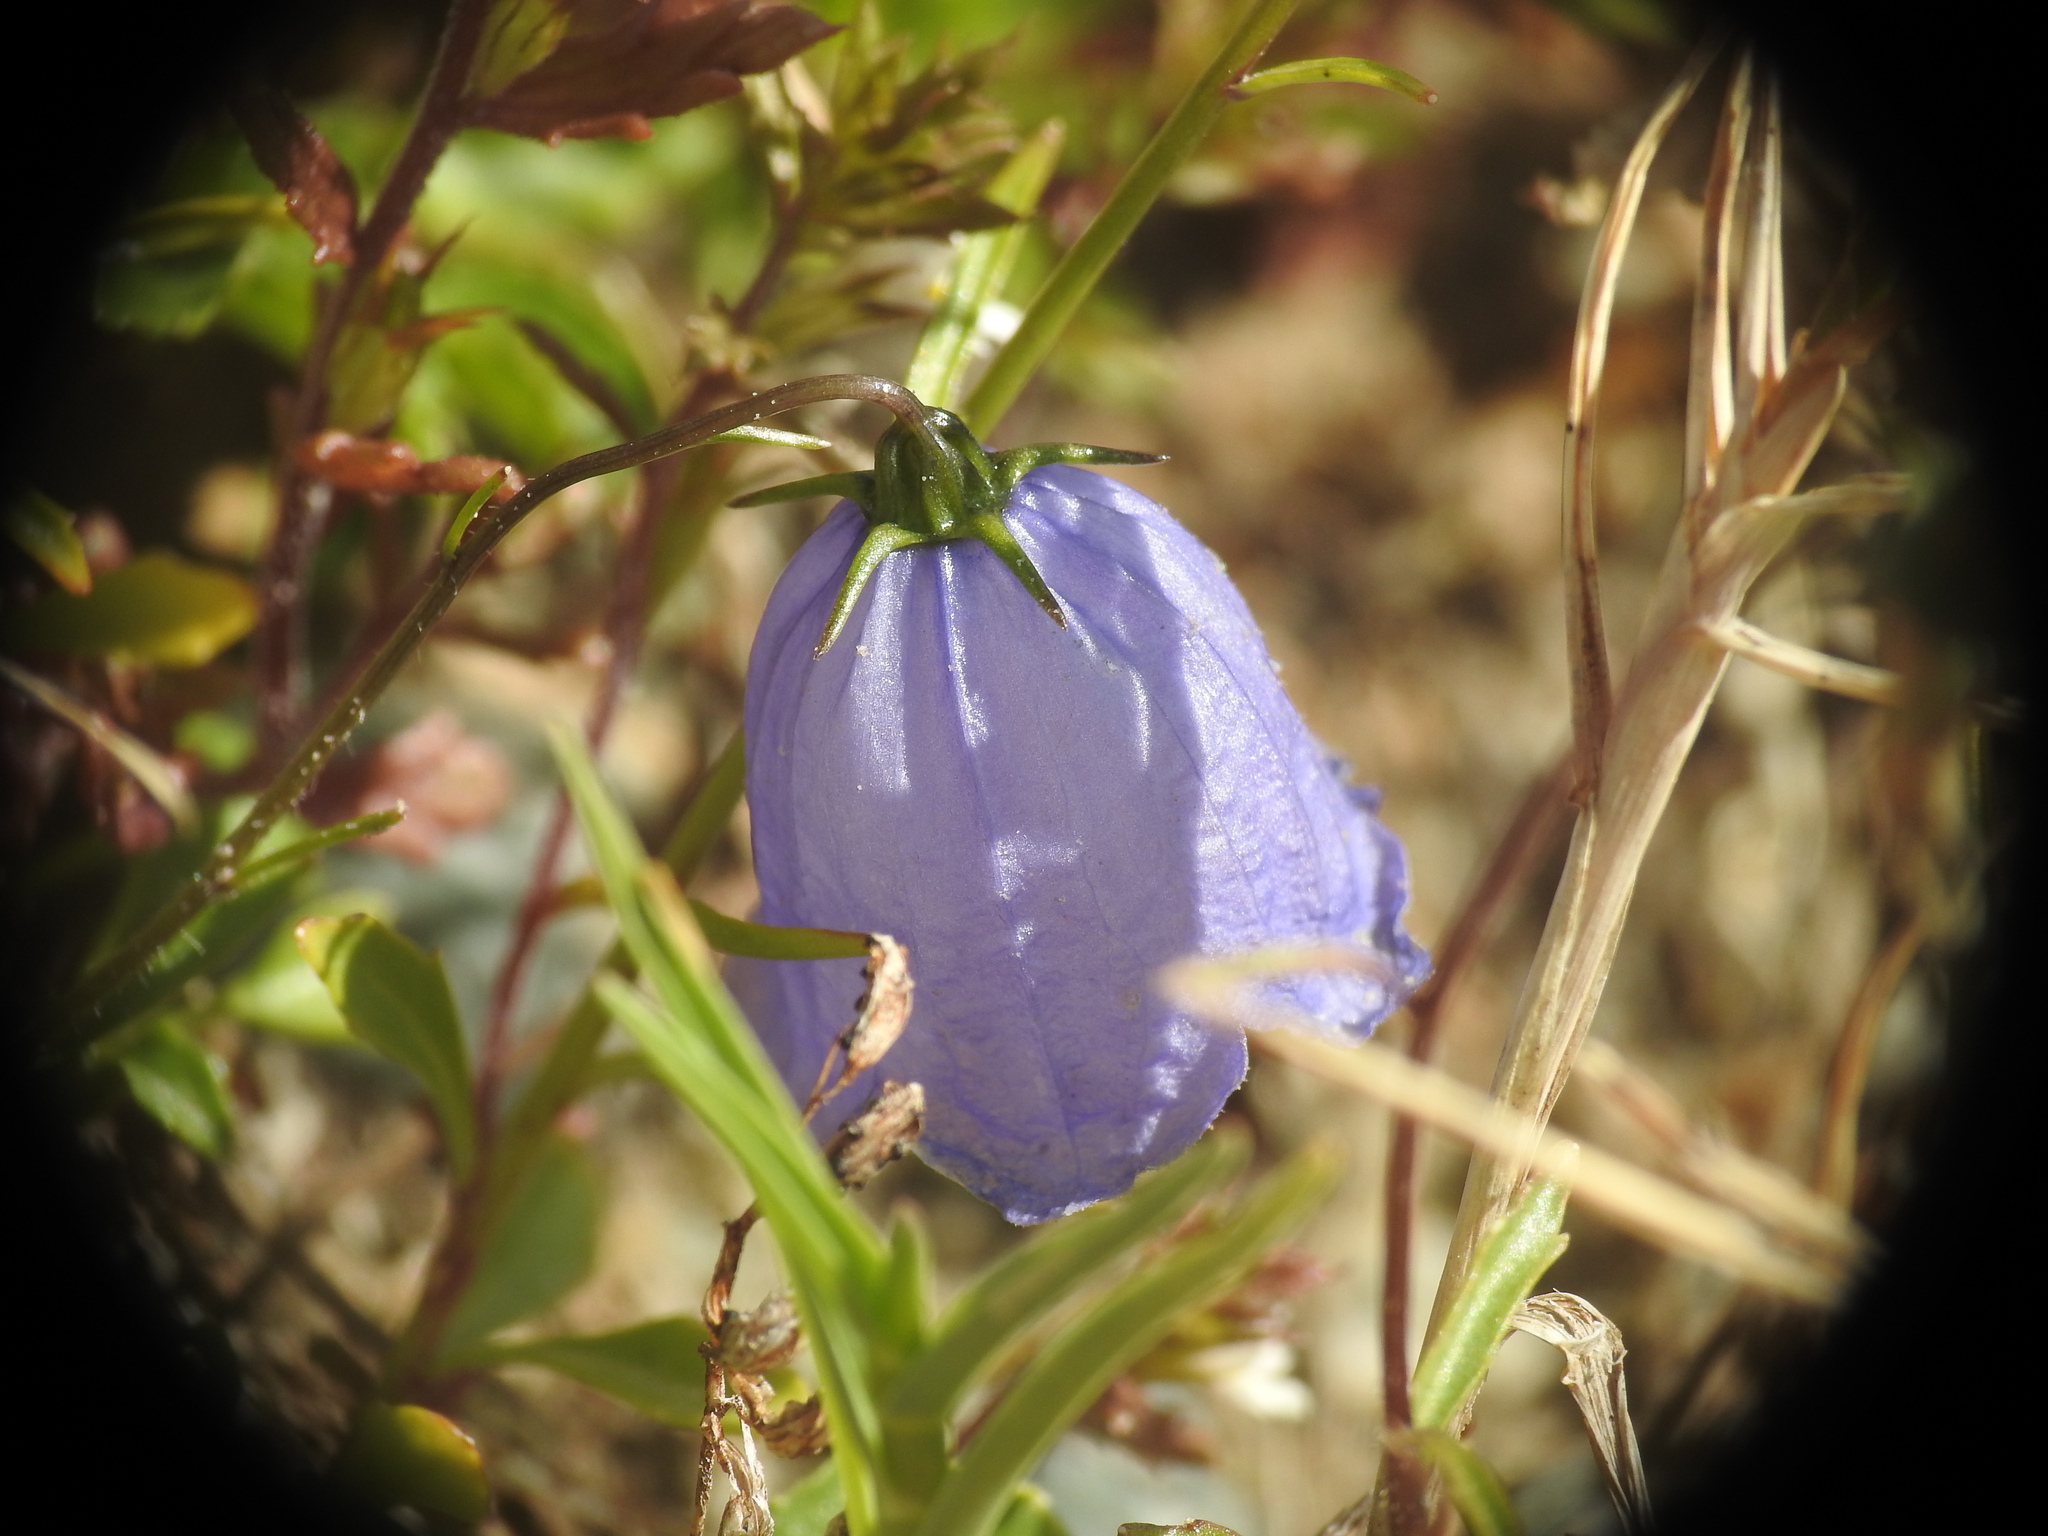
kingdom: Plantae
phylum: Tracheophyta
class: Magnoliopsida
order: Asterales
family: Campanulaceae
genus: Campanula
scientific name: Campanula cochleariifolia
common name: Fairies'-thimbles
